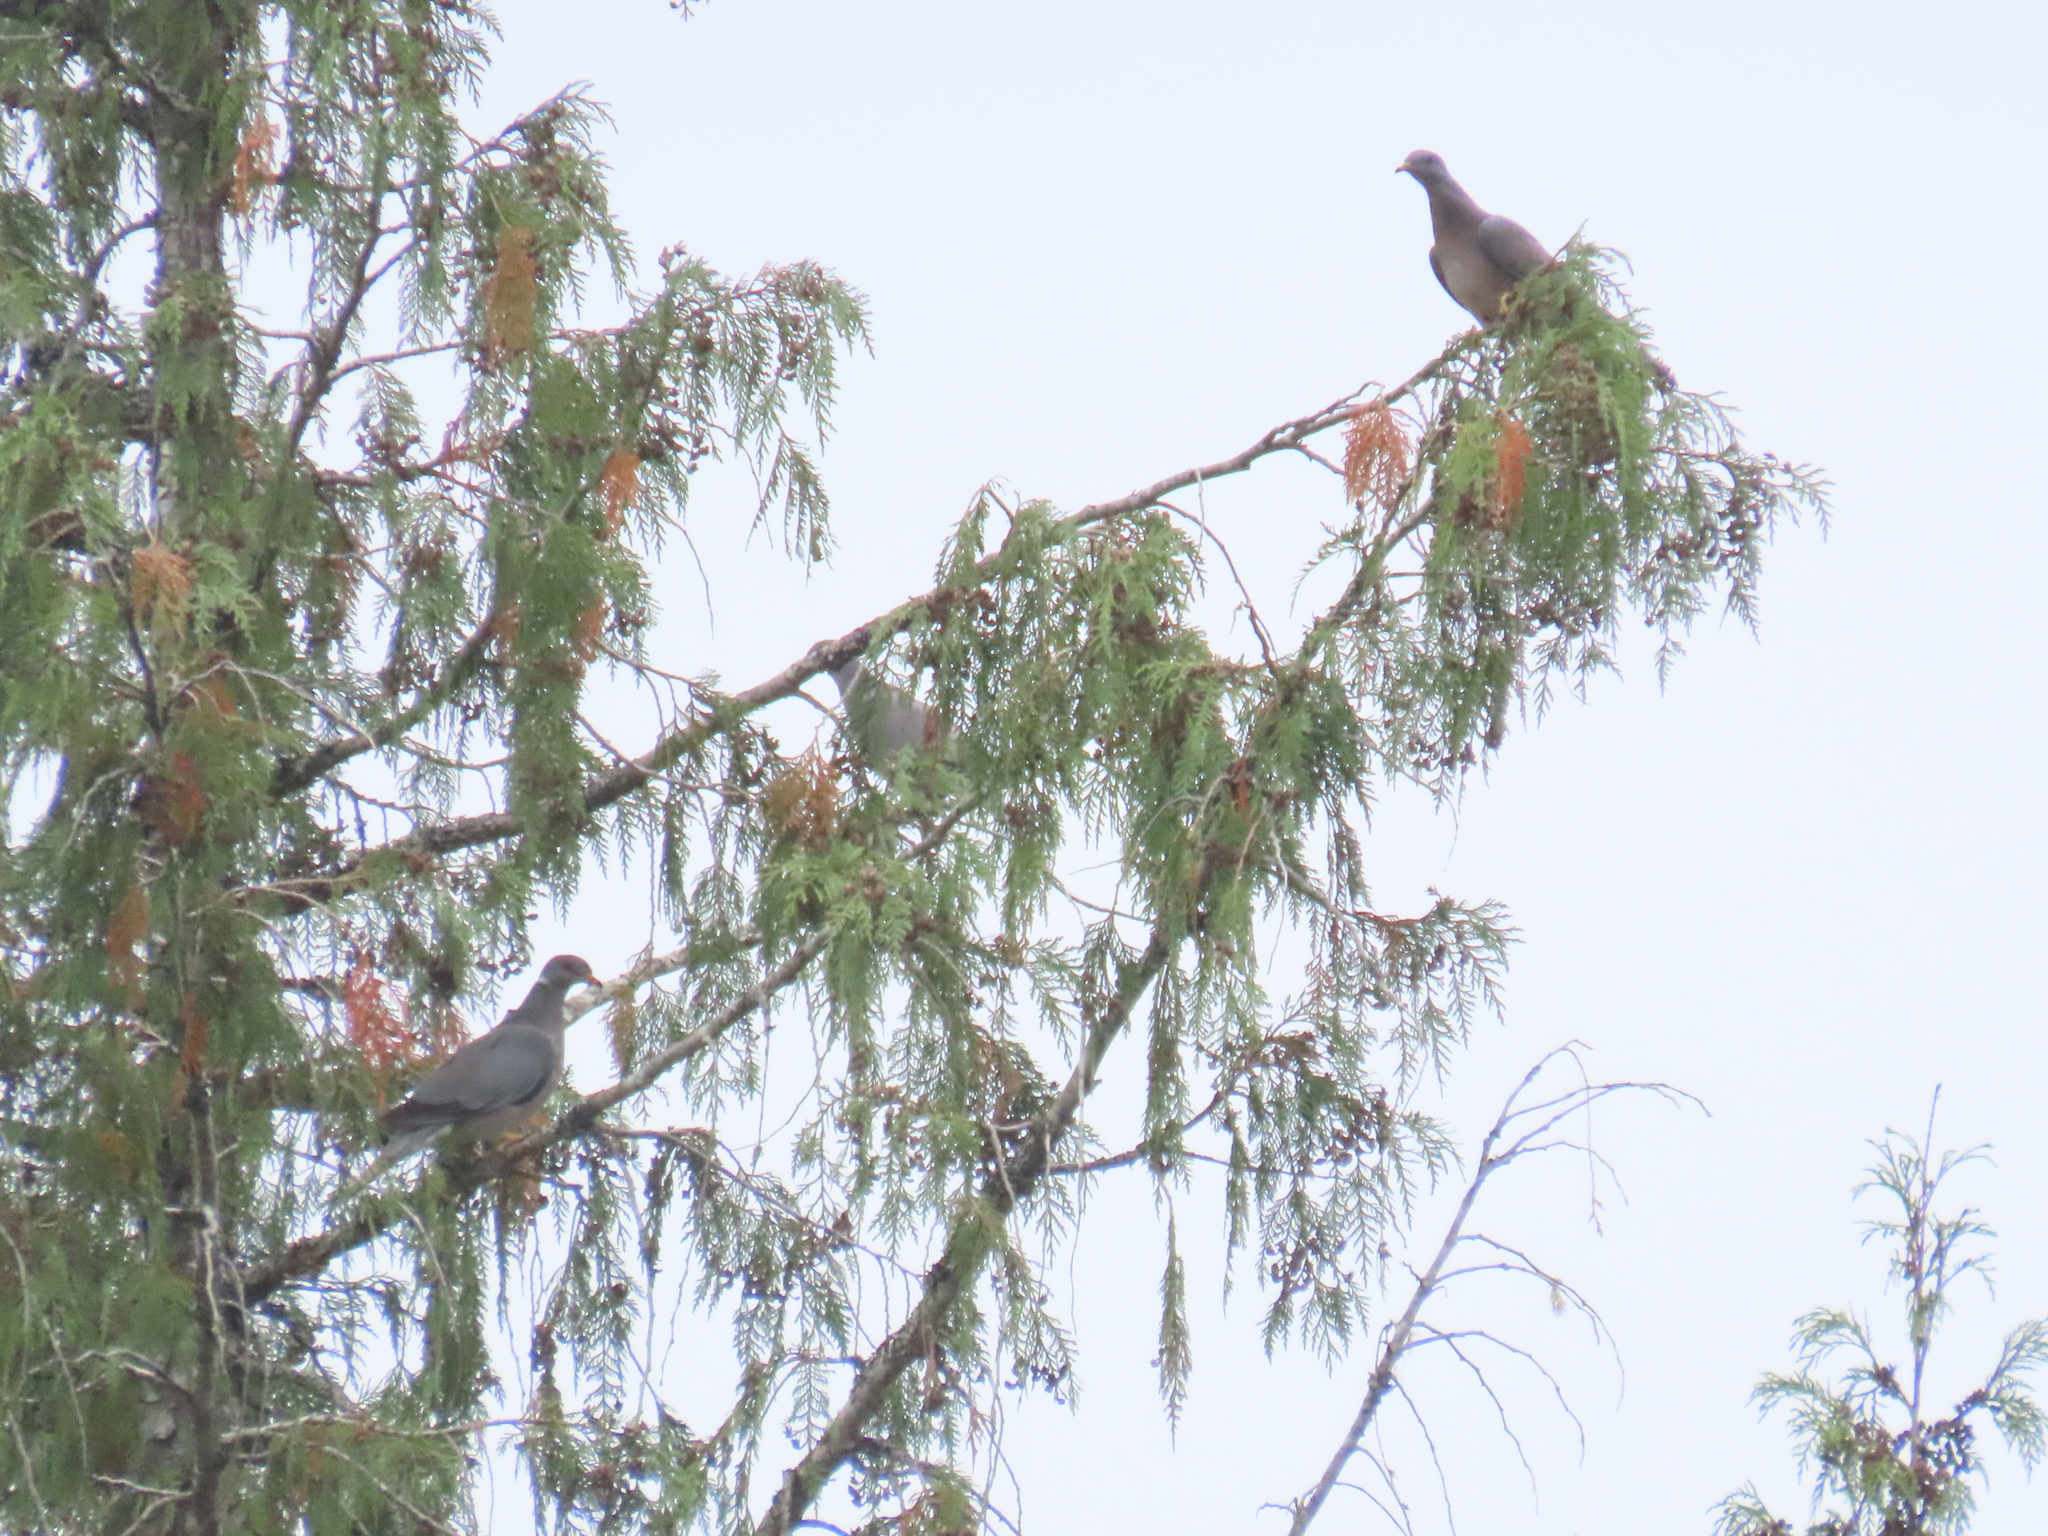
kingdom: Animalia
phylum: Chordata
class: Aves
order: Columbiformes
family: Columbidae
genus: Patagioenas
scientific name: Patagioenas fasciata
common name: Band-tailed pigeon
